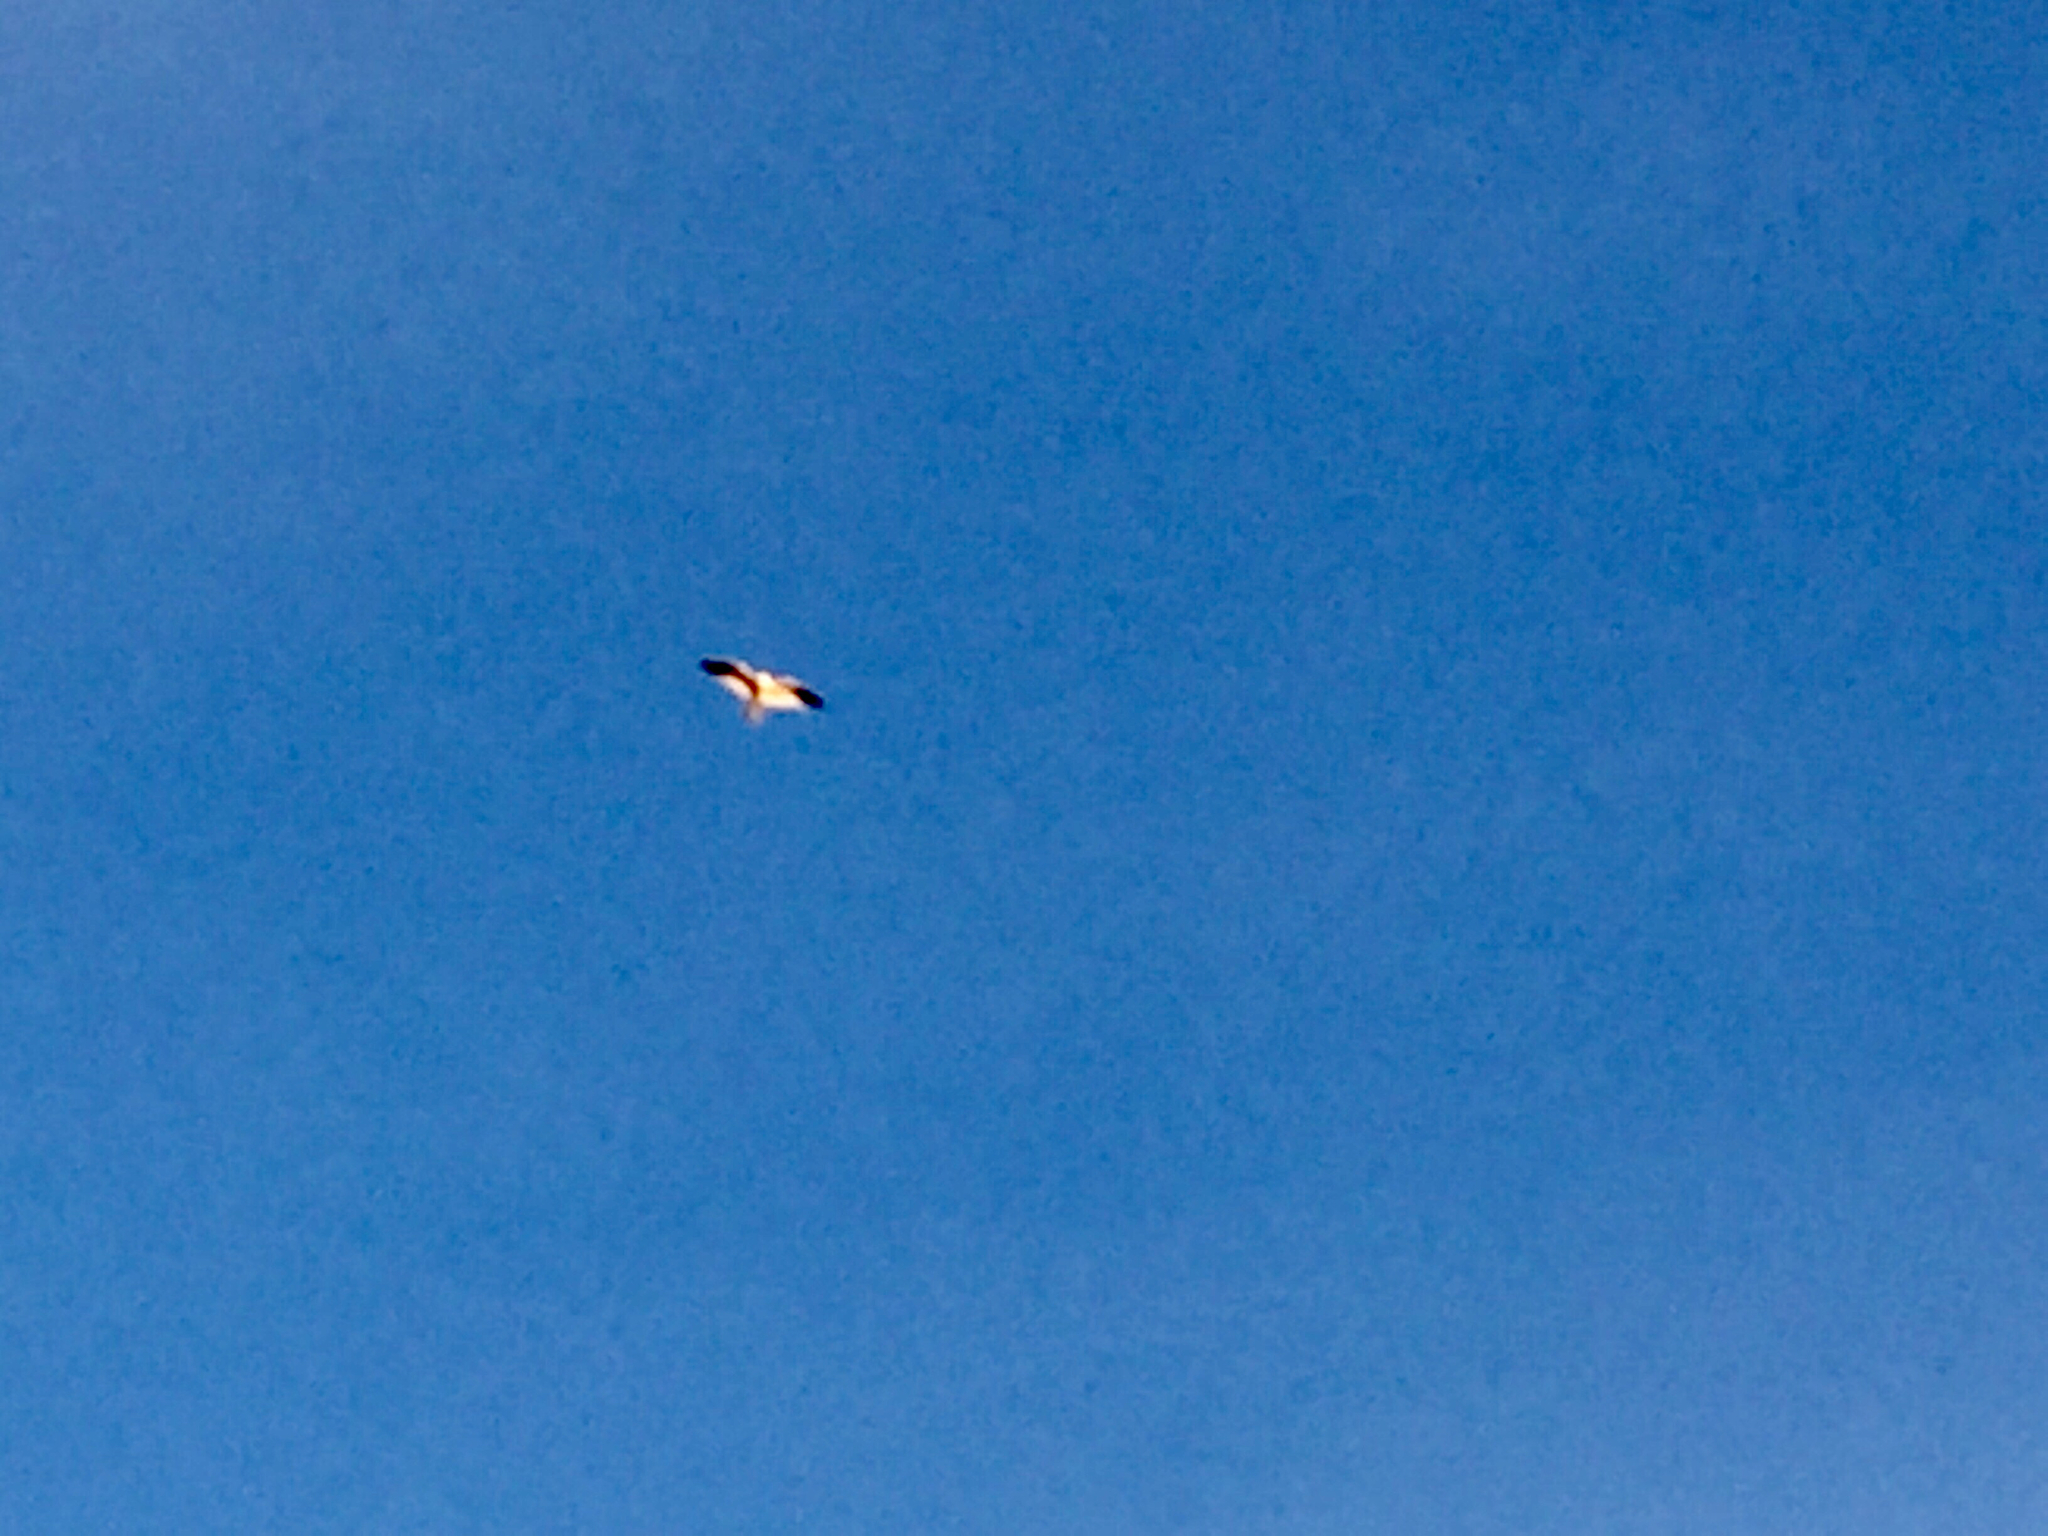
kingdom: Animalia
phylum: Chordata
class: Aves
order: Accipitriformes
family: Accipitridae
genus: Elanus
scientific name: Elanus leucurus
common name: White-tailed kite
